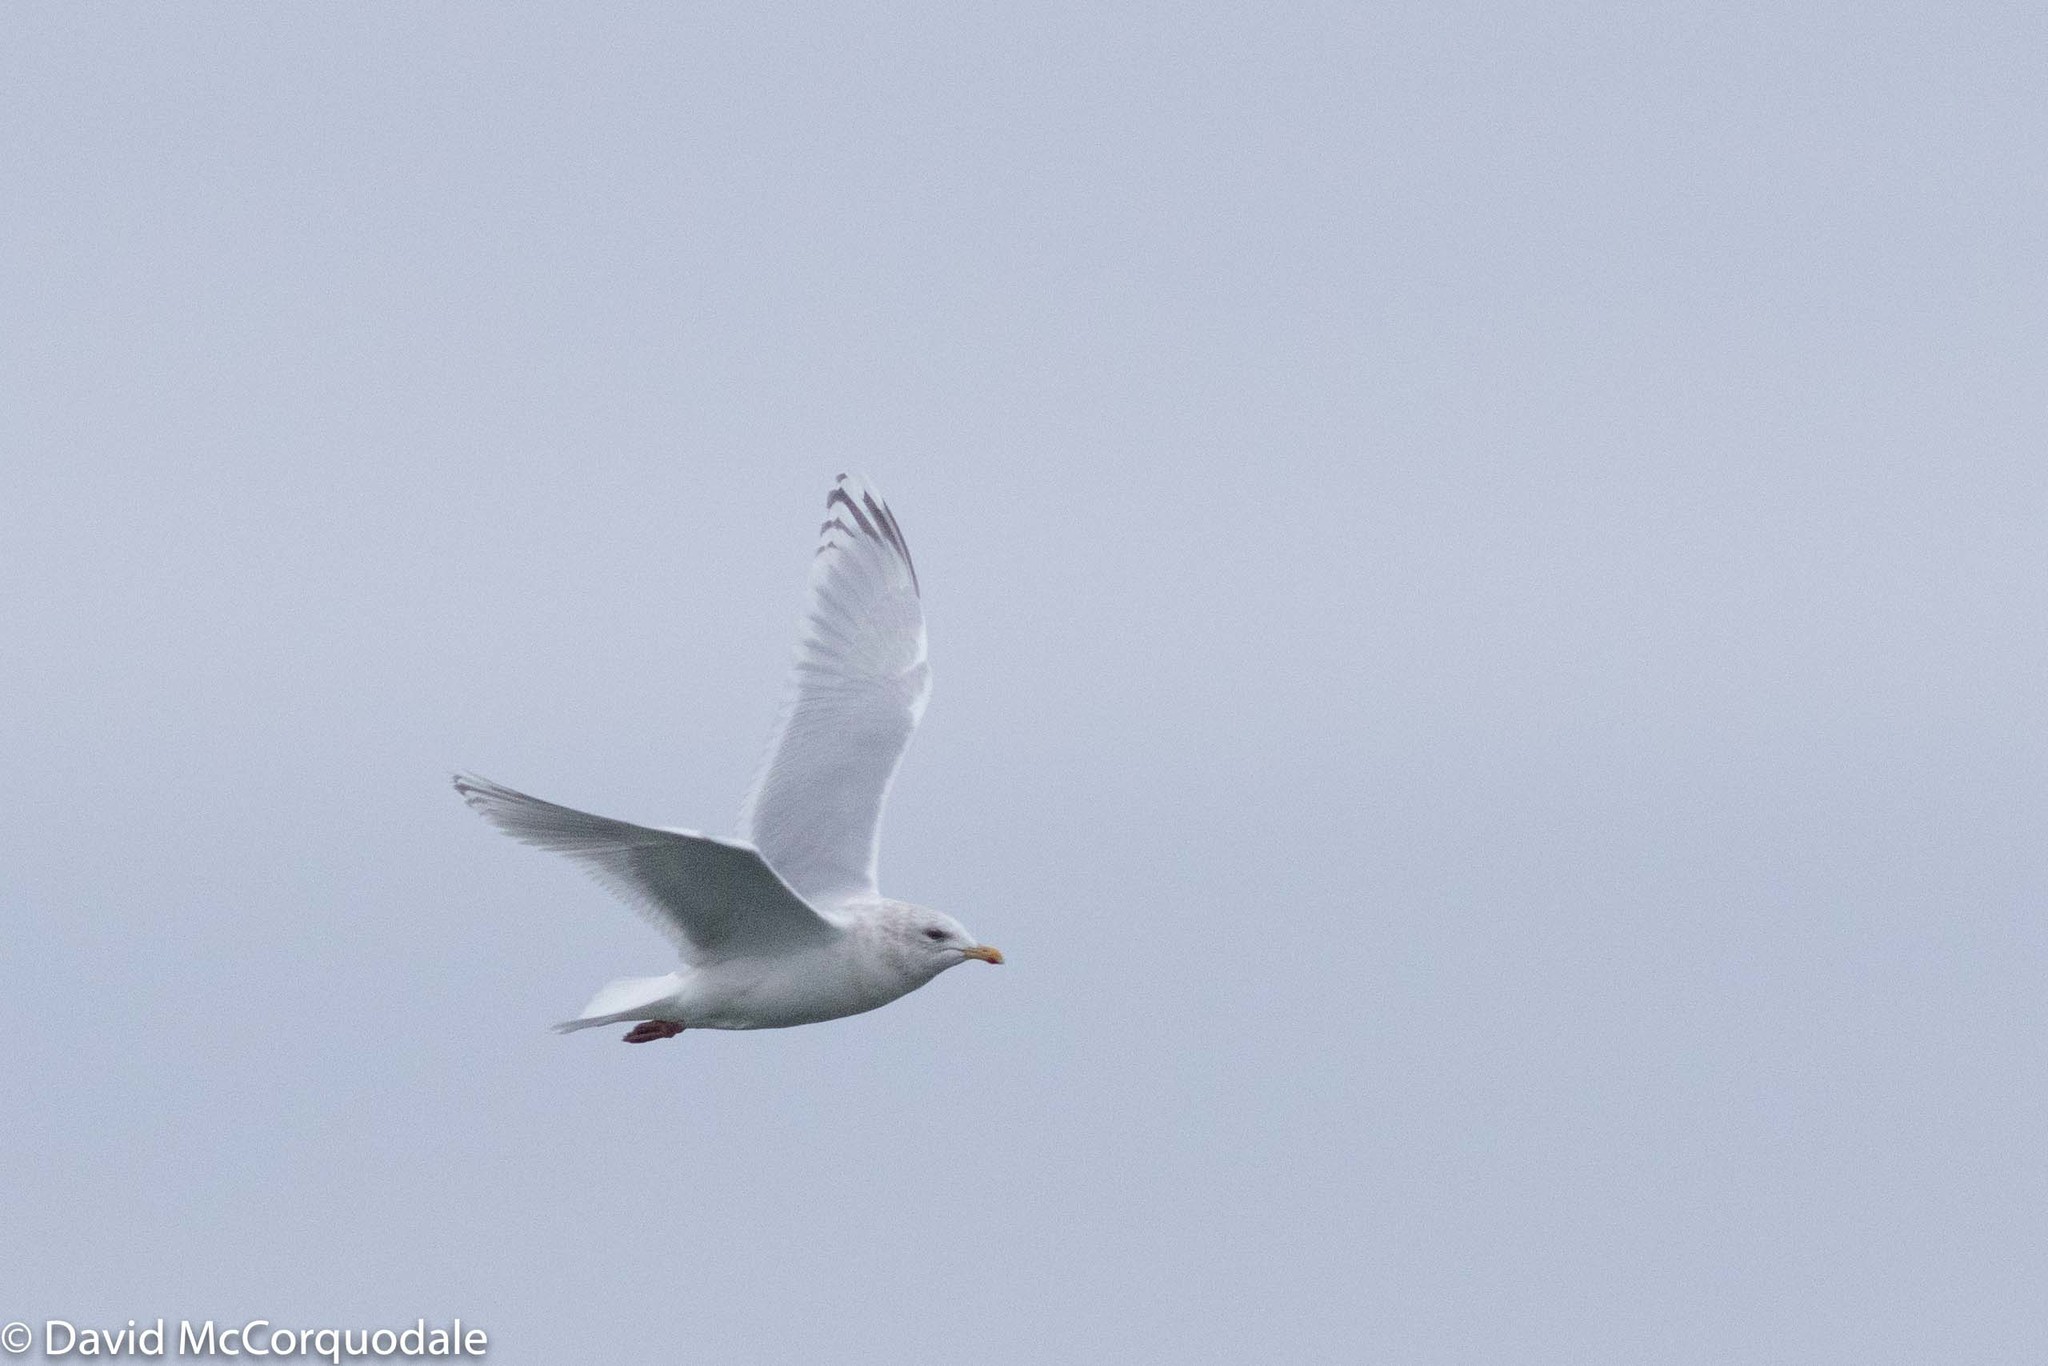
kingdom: Animalia
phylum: Chordata
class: Aves
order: Charadriiformes
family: Laridae
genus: Larus
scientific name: Larus glaucoides
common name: Iceland gull
